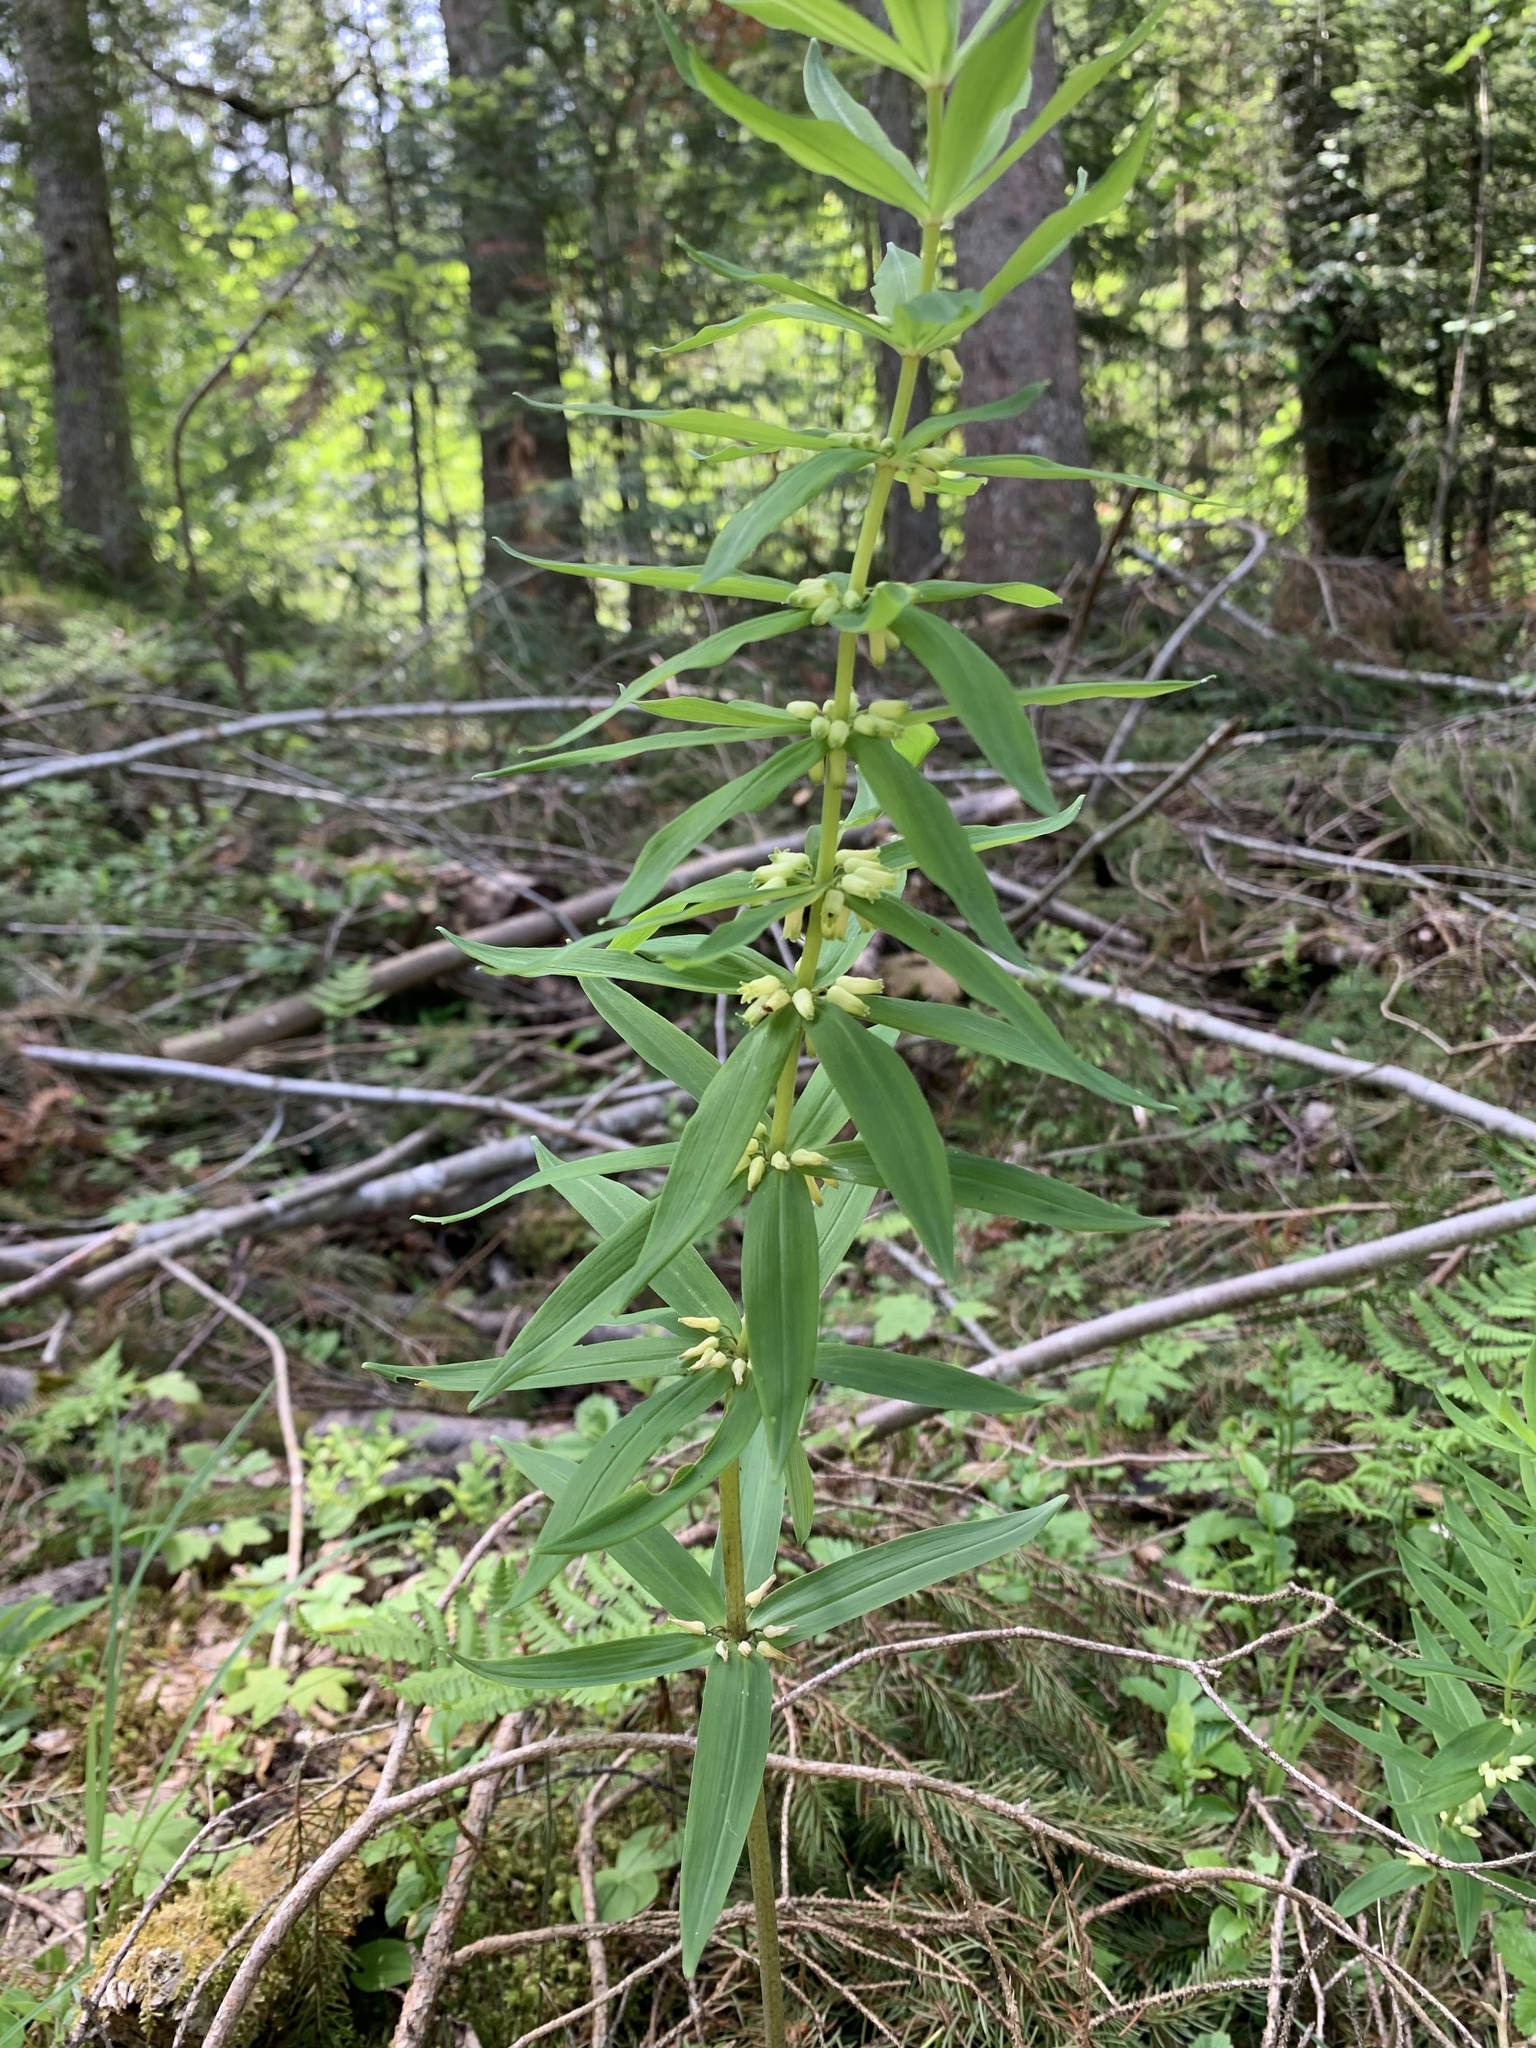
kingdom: Plantae
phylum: Tracheophyta
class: Liliopsida
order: Asparagales
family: Asparagaceae
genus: Polygonatum
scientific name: Polygonatum verticillatum
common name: Whorled solomon's-seal
